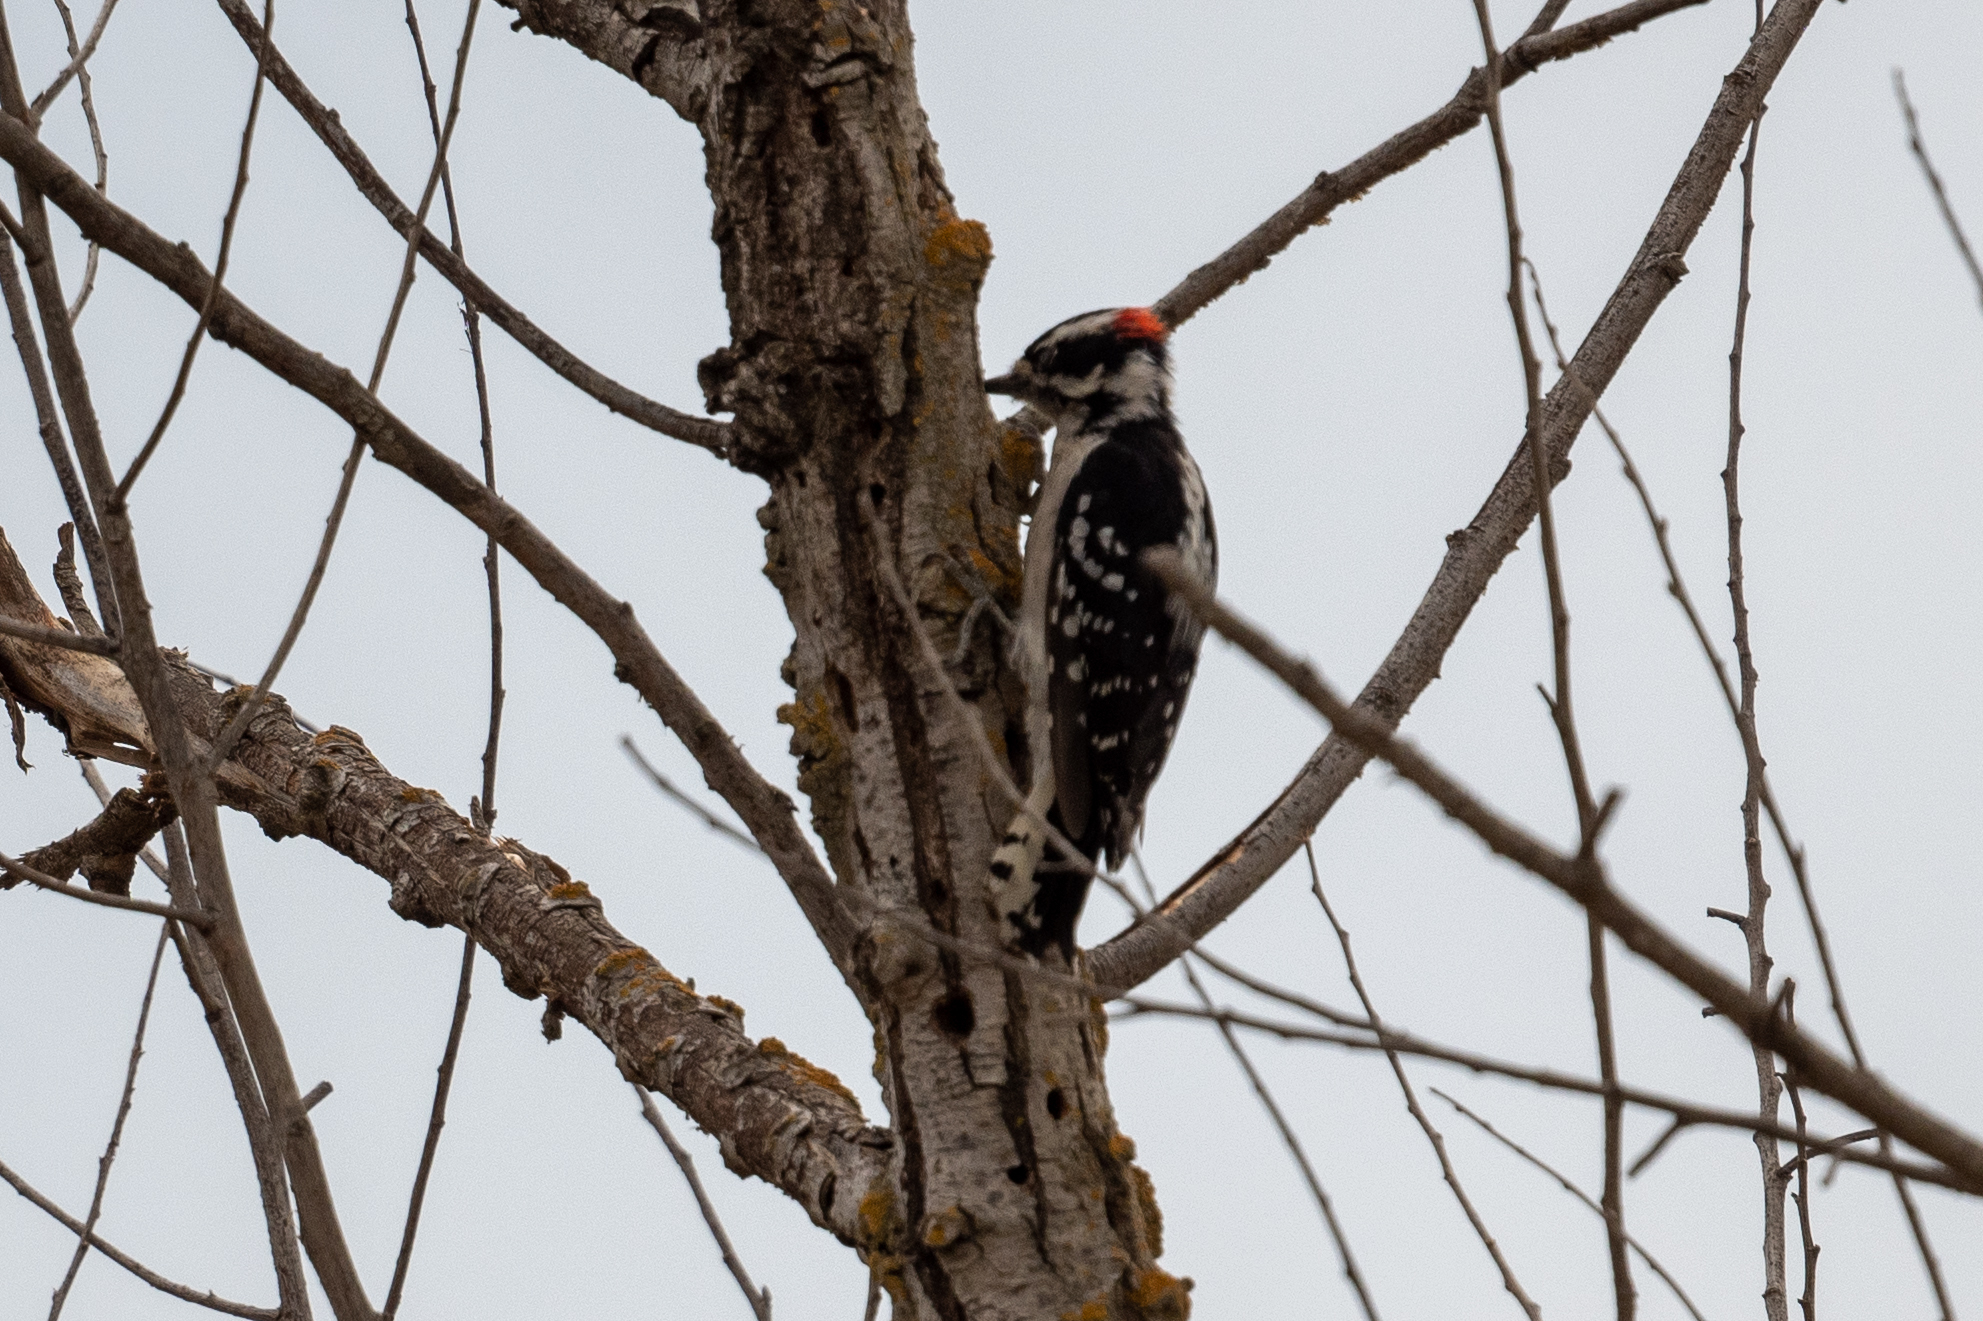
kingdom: Animalia
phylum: Chordata
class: Aves
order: Piciformes
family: Picidae
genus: Dryobates
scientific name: Dryobates pubescens
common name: Downy woodpecker
